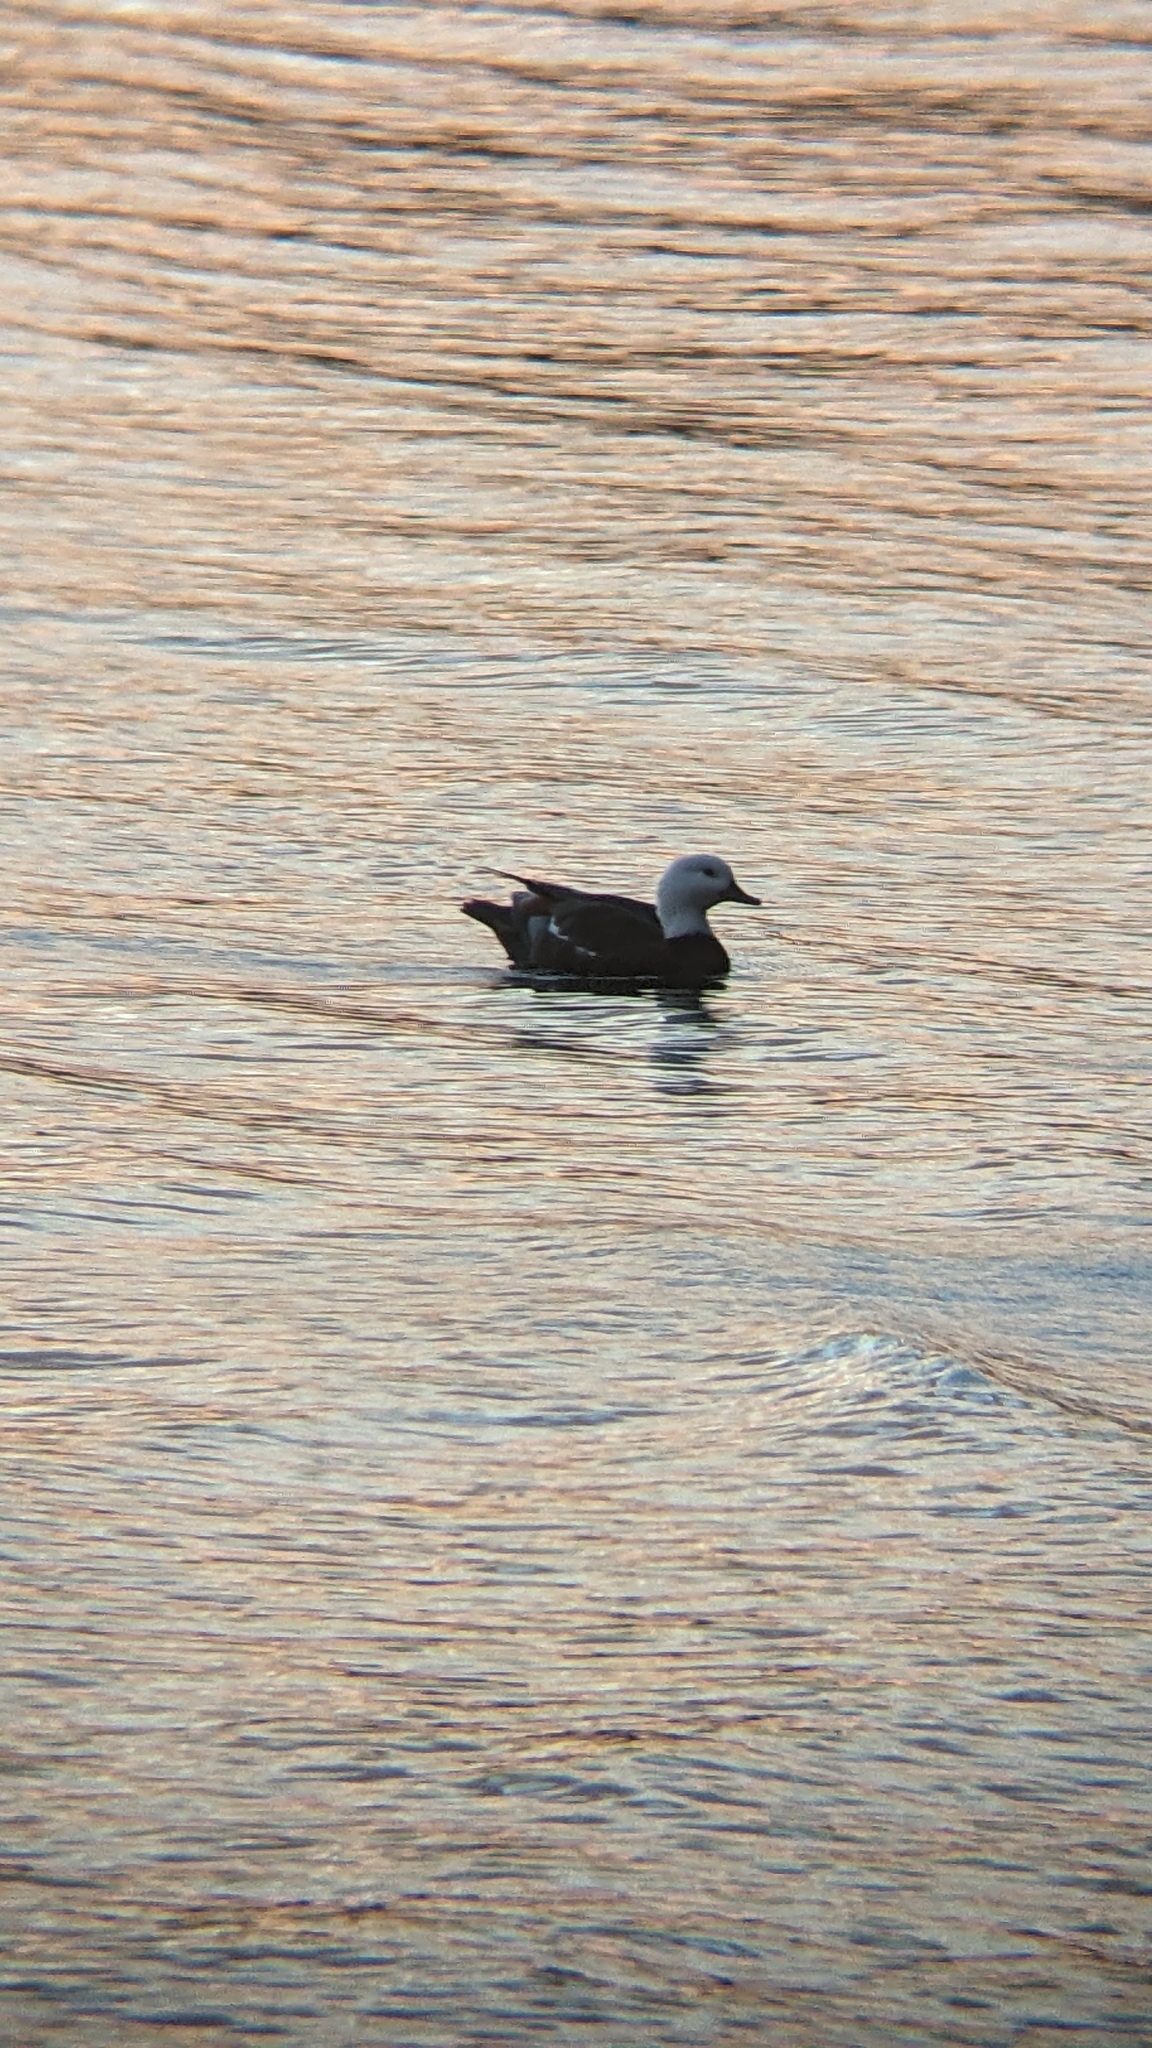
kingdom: Animalia
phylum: Chordata
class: Aves
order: Anseriformes
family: Anatidae
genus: Tadorna
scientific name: Tadorna variegata
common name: Paradise shelduck
